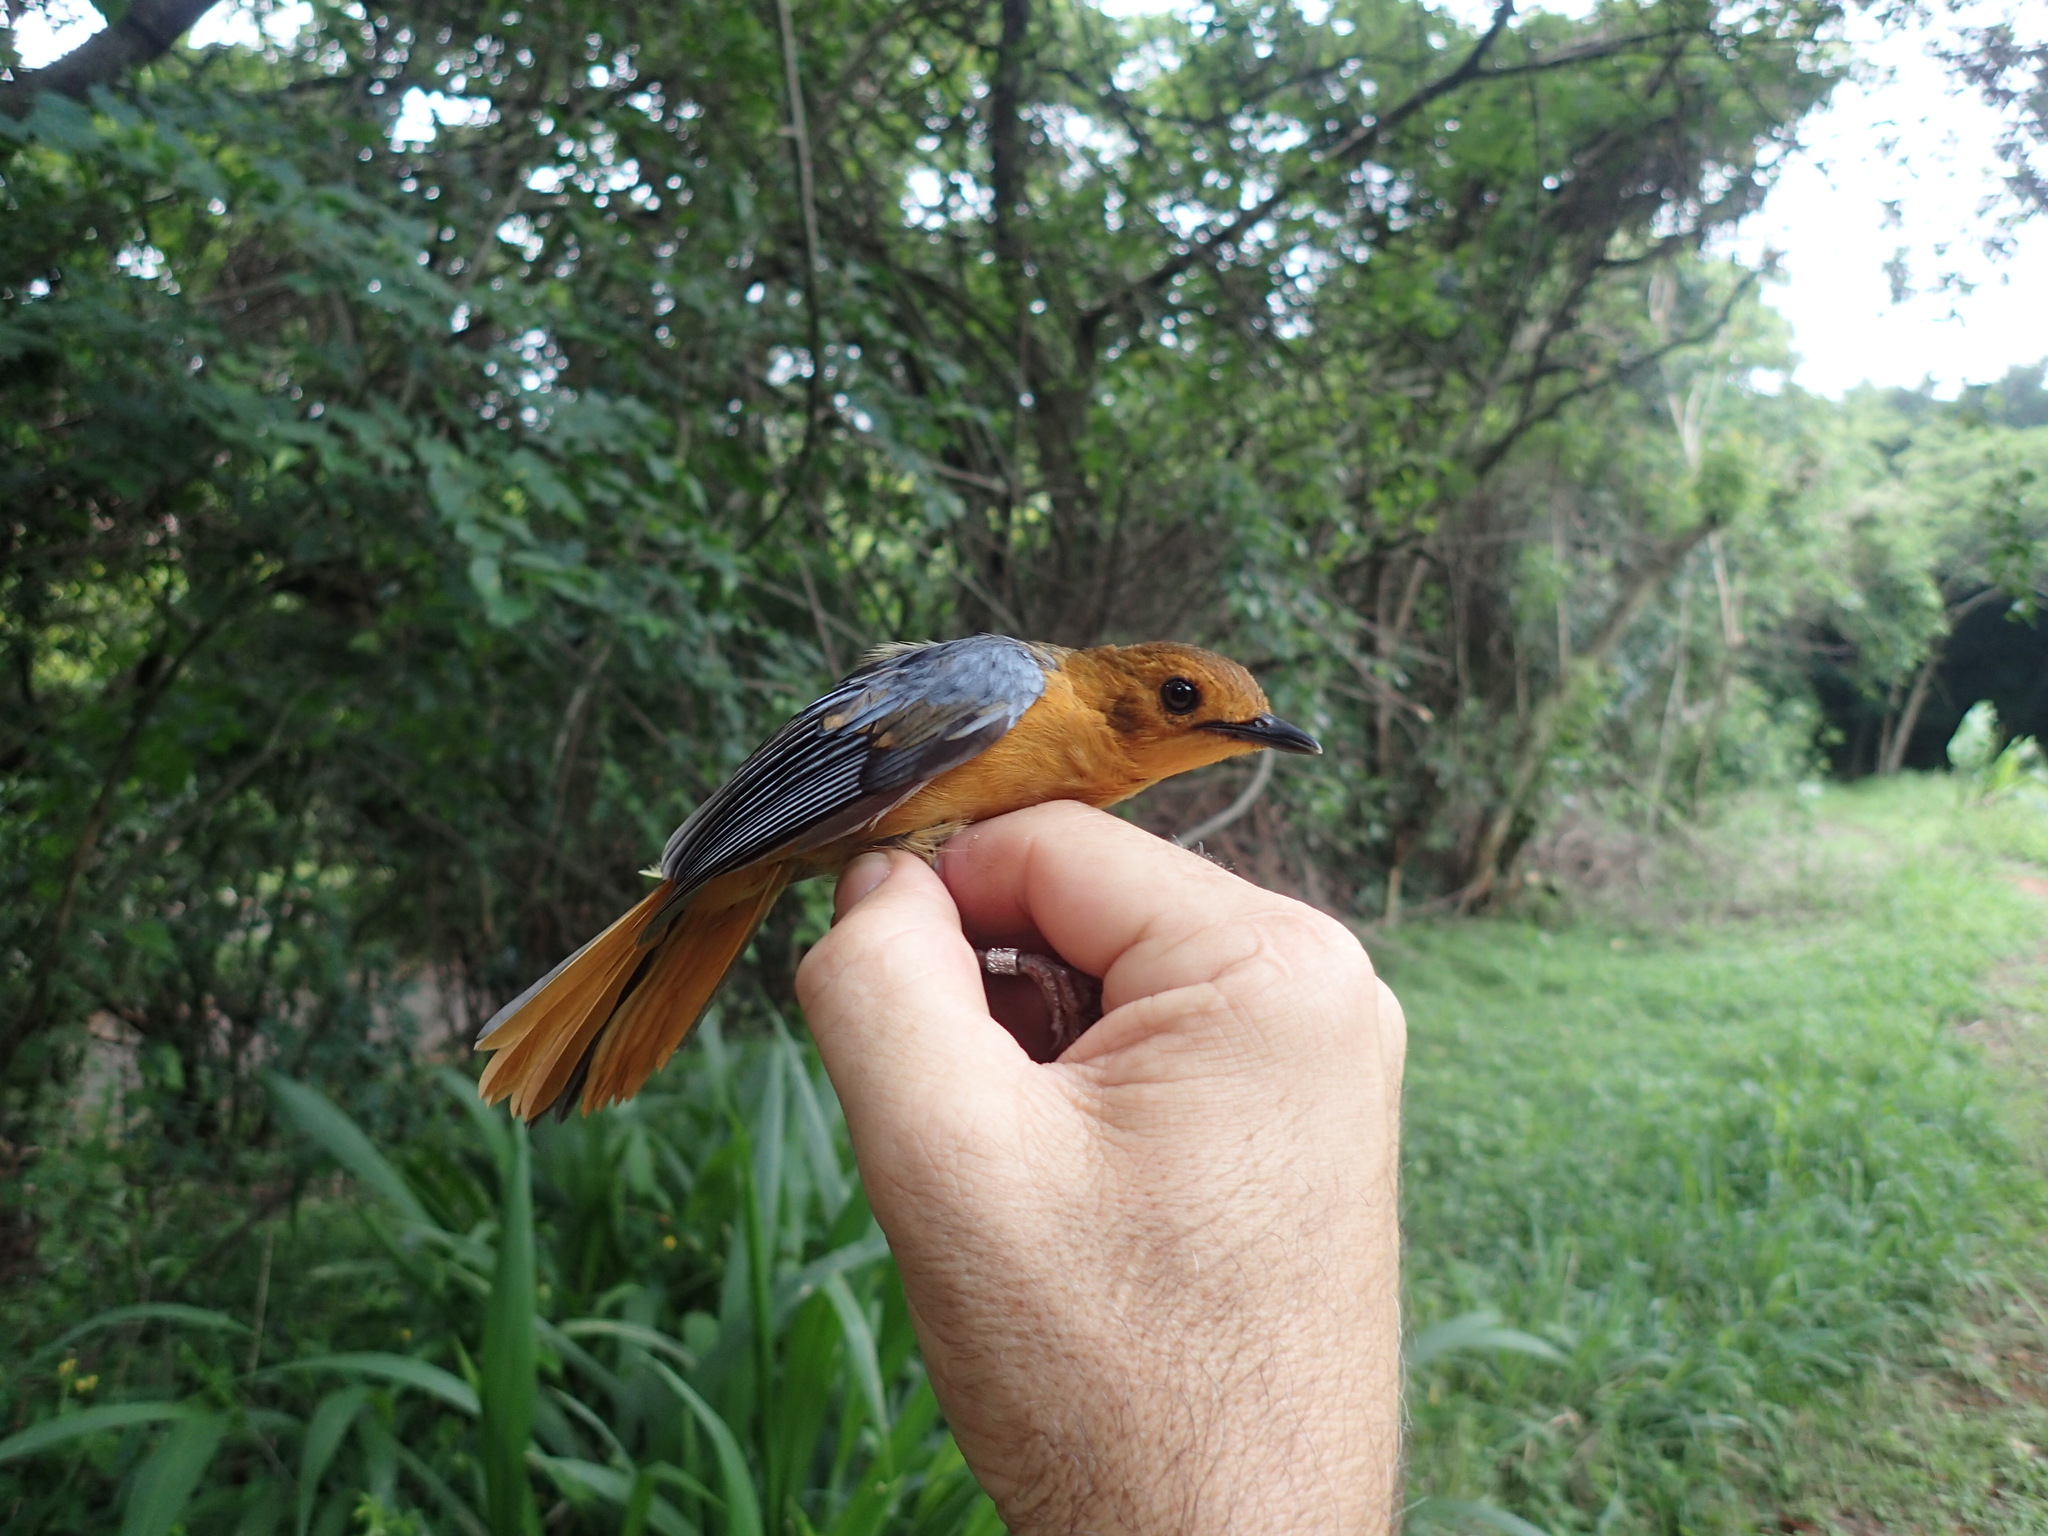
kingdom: Animalia
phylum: Chordata
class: Aves
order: Passeriformes
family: Muscicapidae
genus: Cossypha
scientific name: Cossypha natalensis
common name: Red-capped robin-chat
